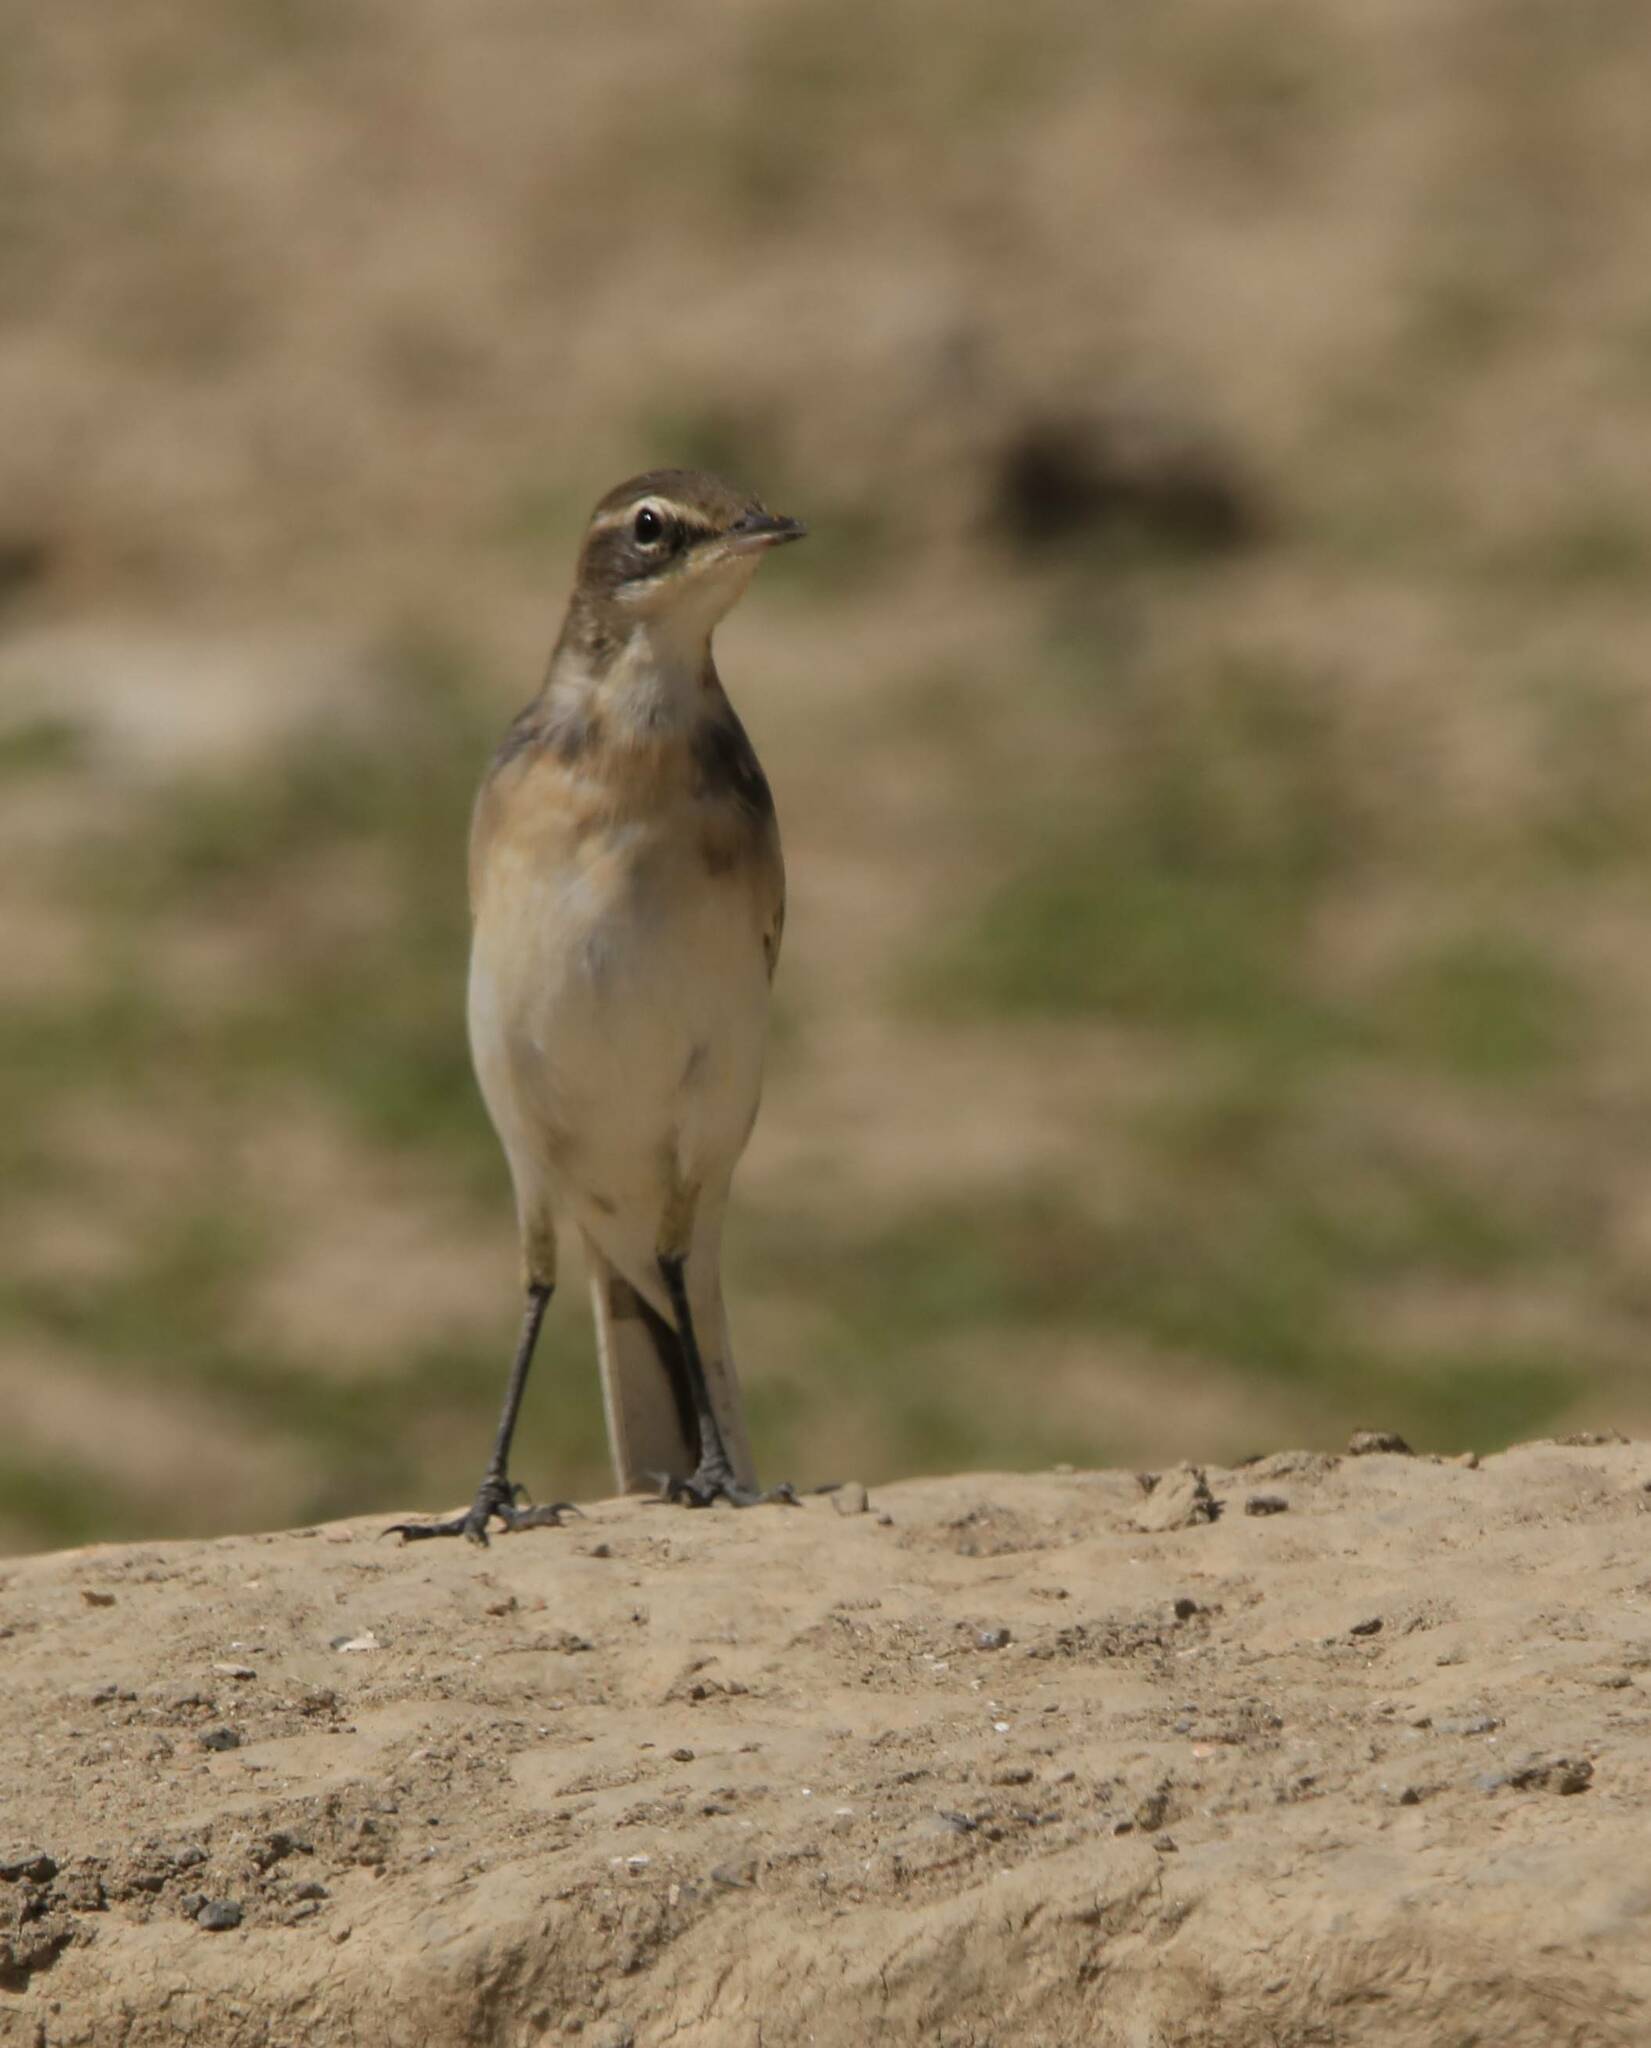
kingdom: Animalia
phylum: Chordata
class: Aves
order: Passeriformes
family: Motacillidae
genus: Motacilla
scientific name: Motacilla flava
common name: Western yellow wagtail
